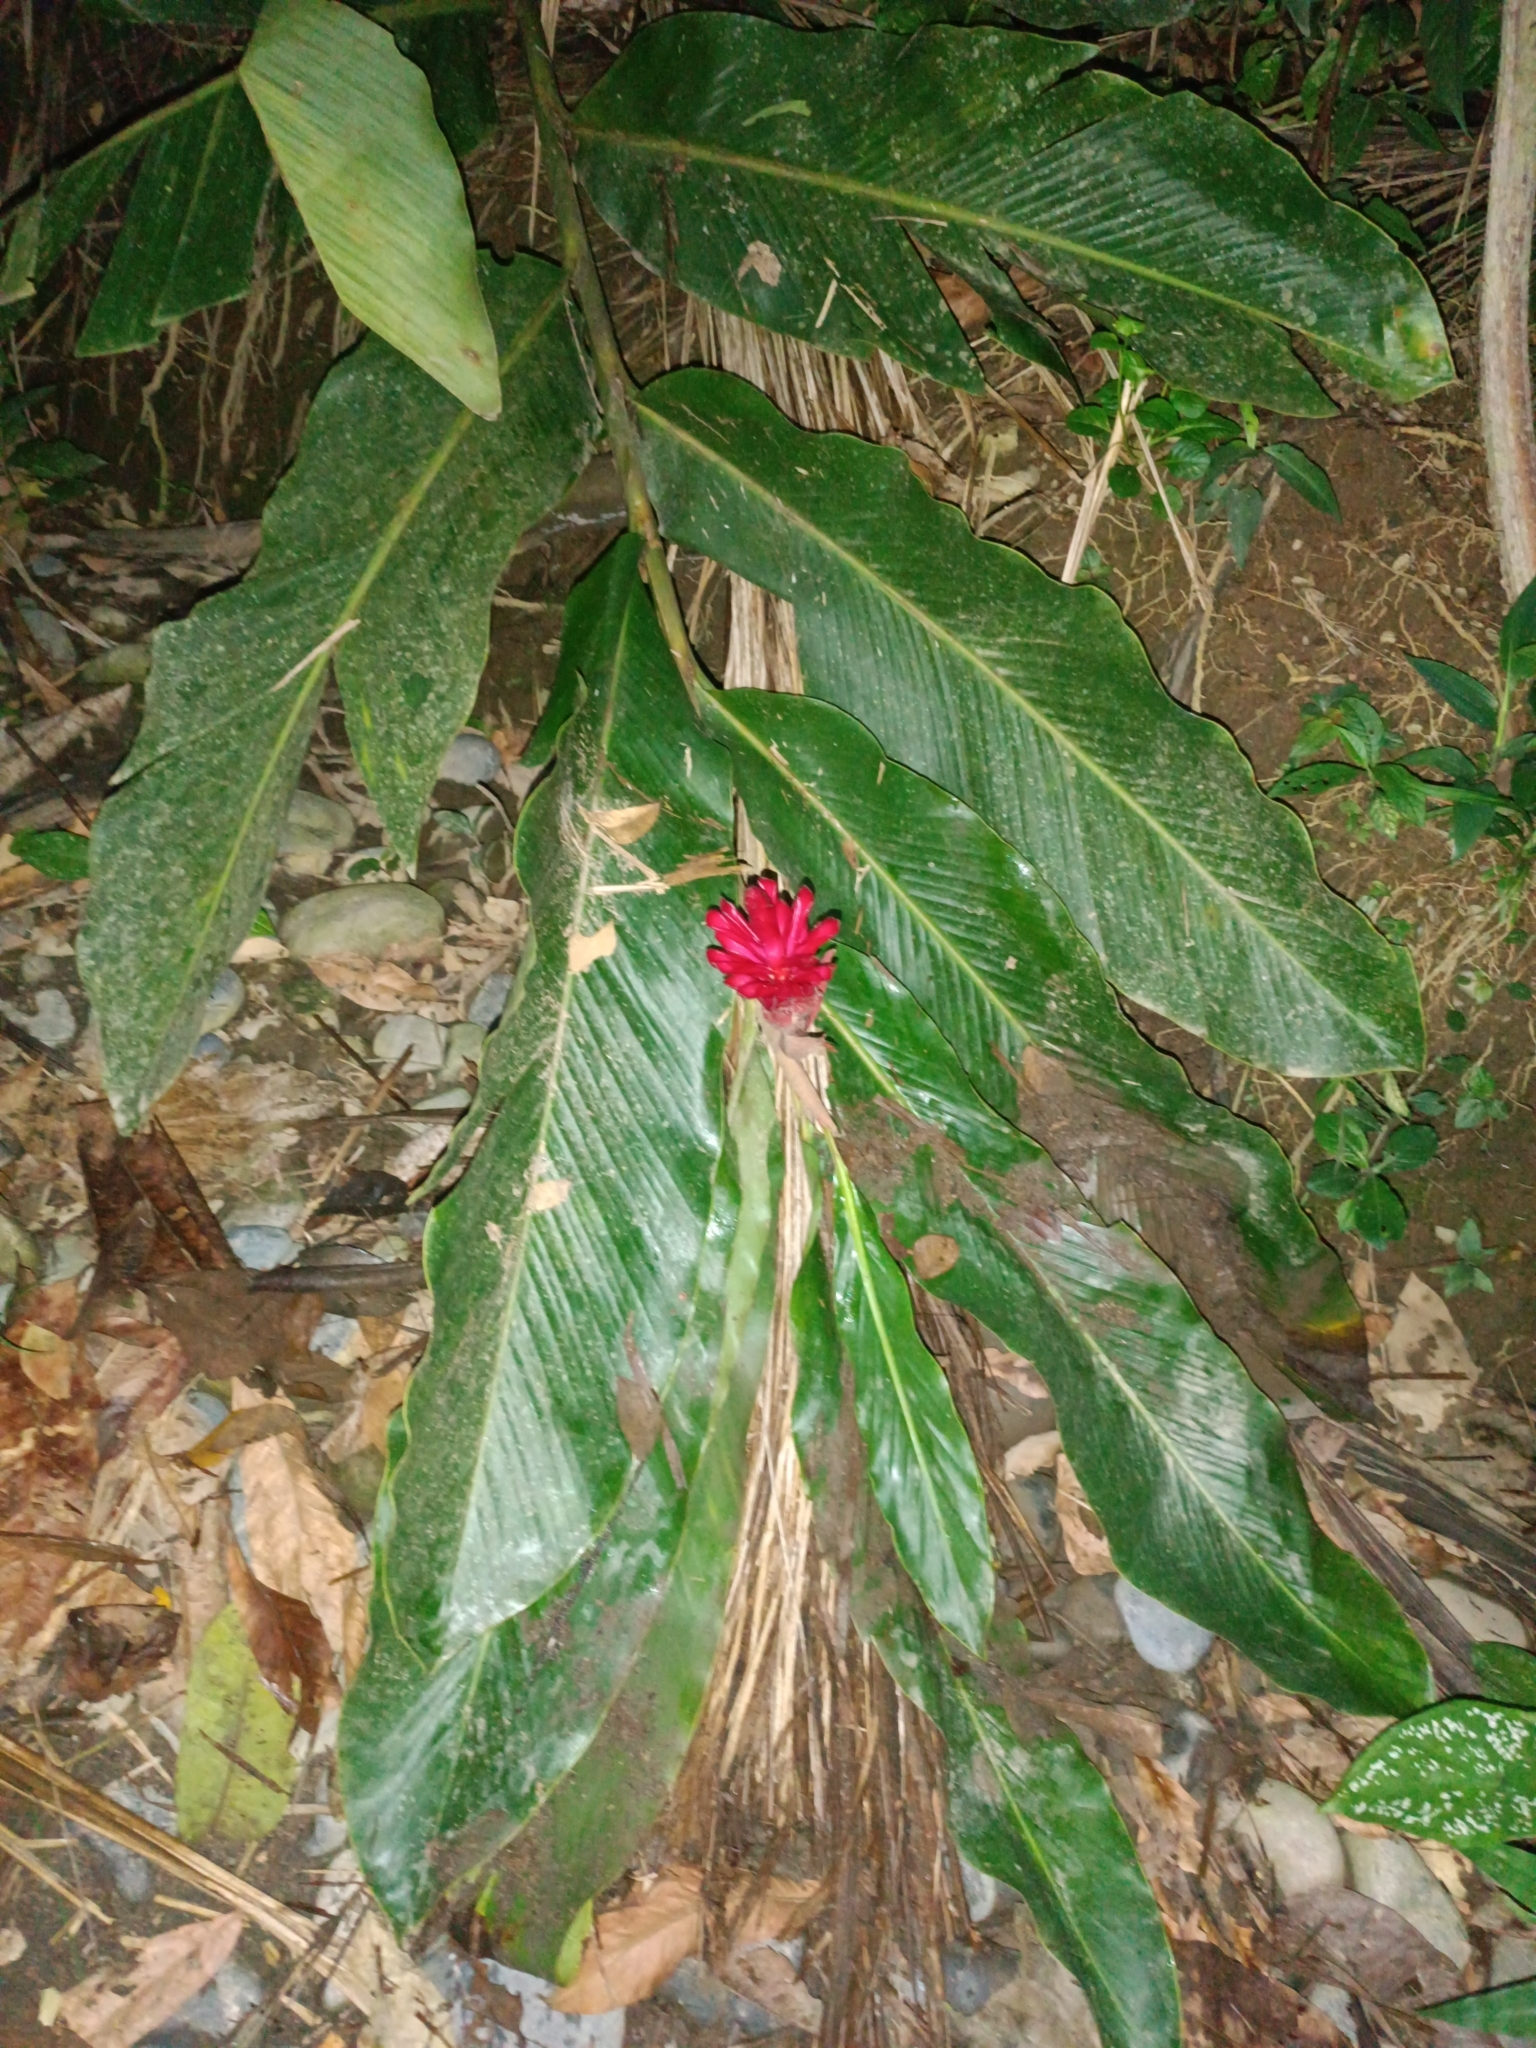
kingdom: Plantae
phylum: Tracheophyta
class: Liliopsida
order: Zingiberales
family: Zingiberaceae
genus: Alpinia
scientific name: Alpinia purpurata
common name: Red ginger
